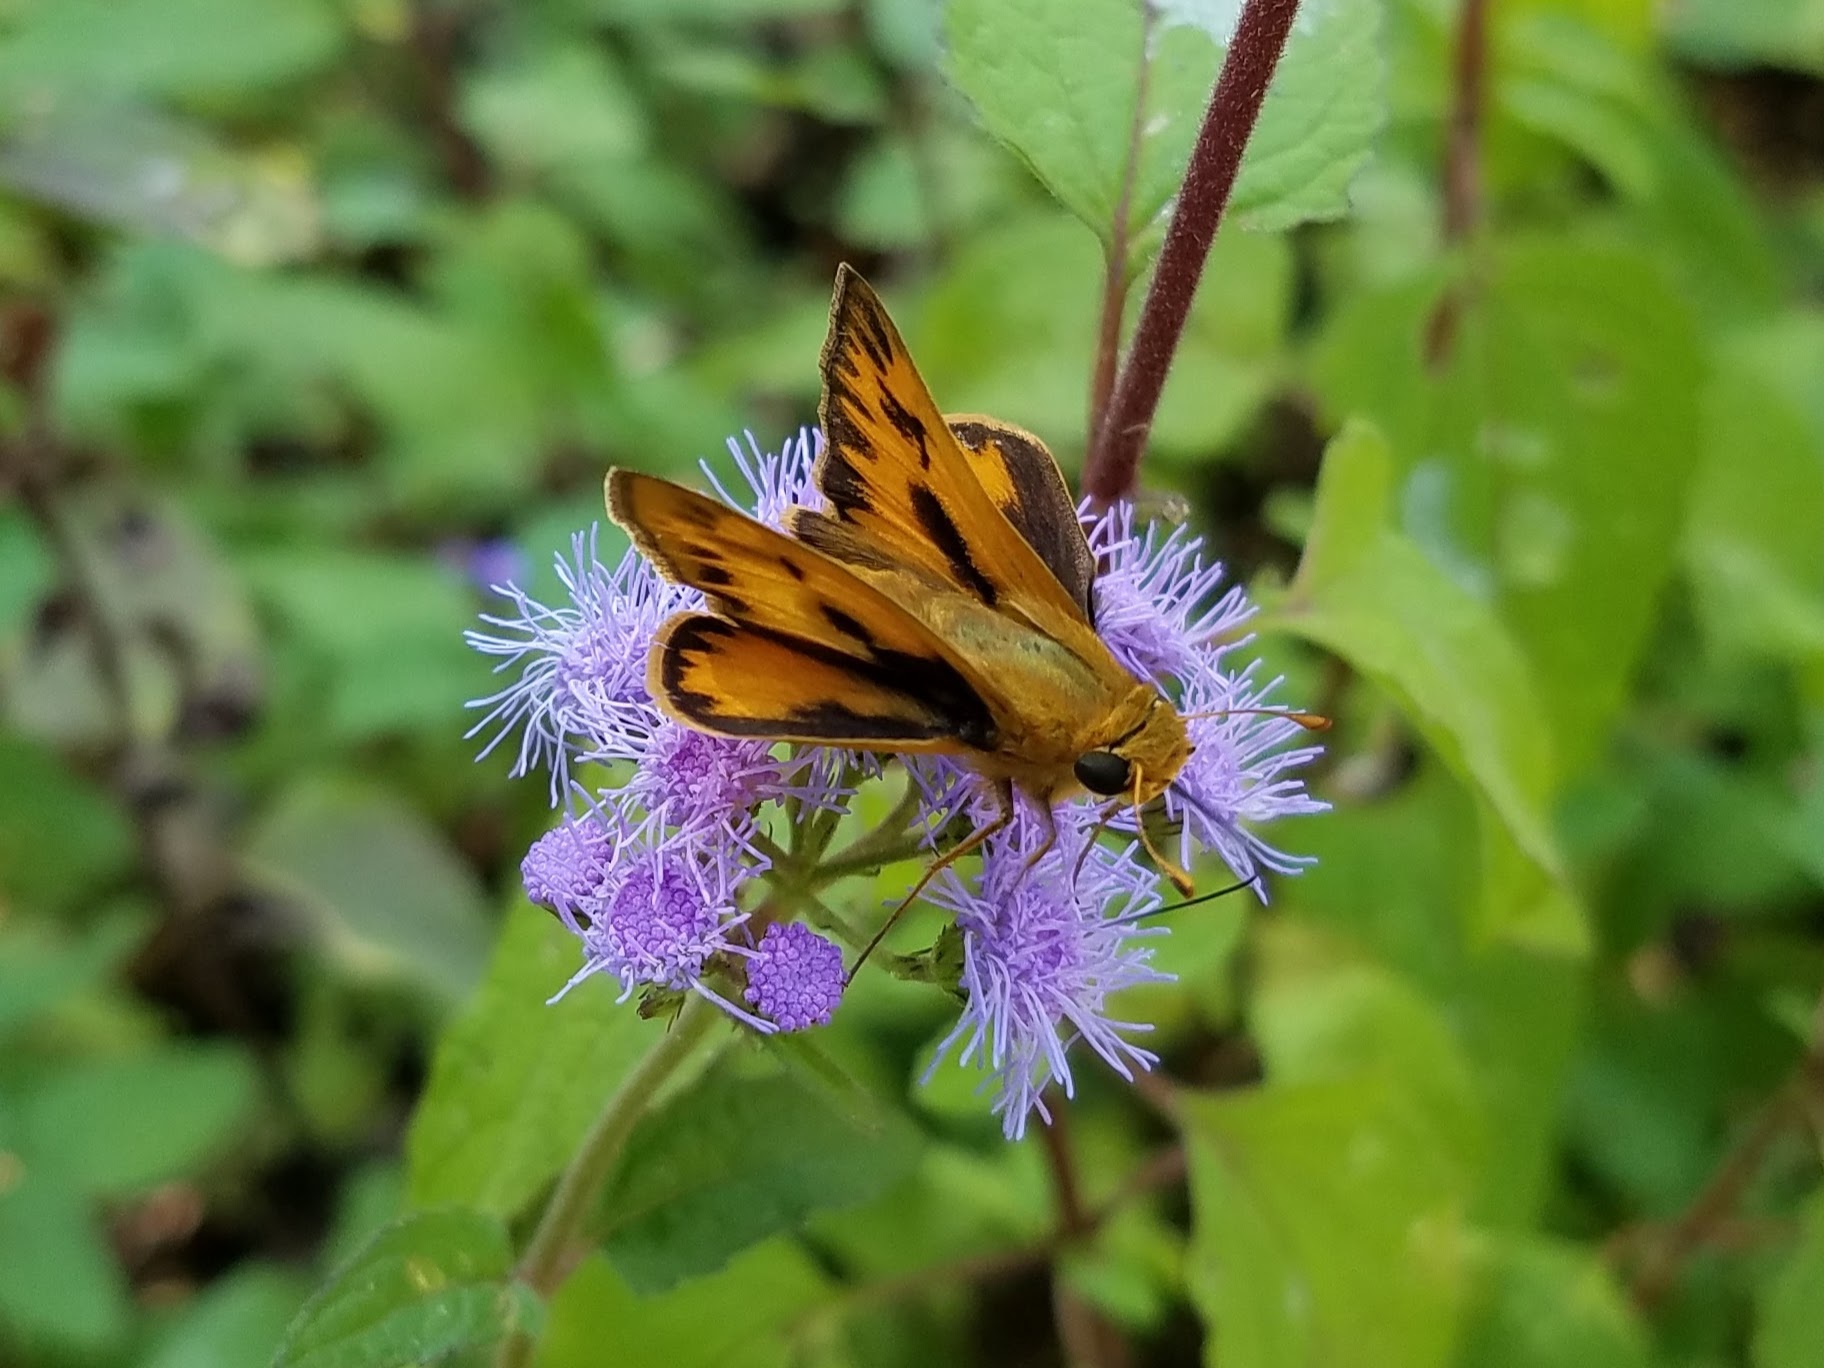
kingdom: Animalia
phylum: Arthropoda
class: Insecta
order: Lepidoptera
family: Hesperiidae
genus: Hylephila
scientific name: Hylephila phyleus
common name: Fiery skipper
